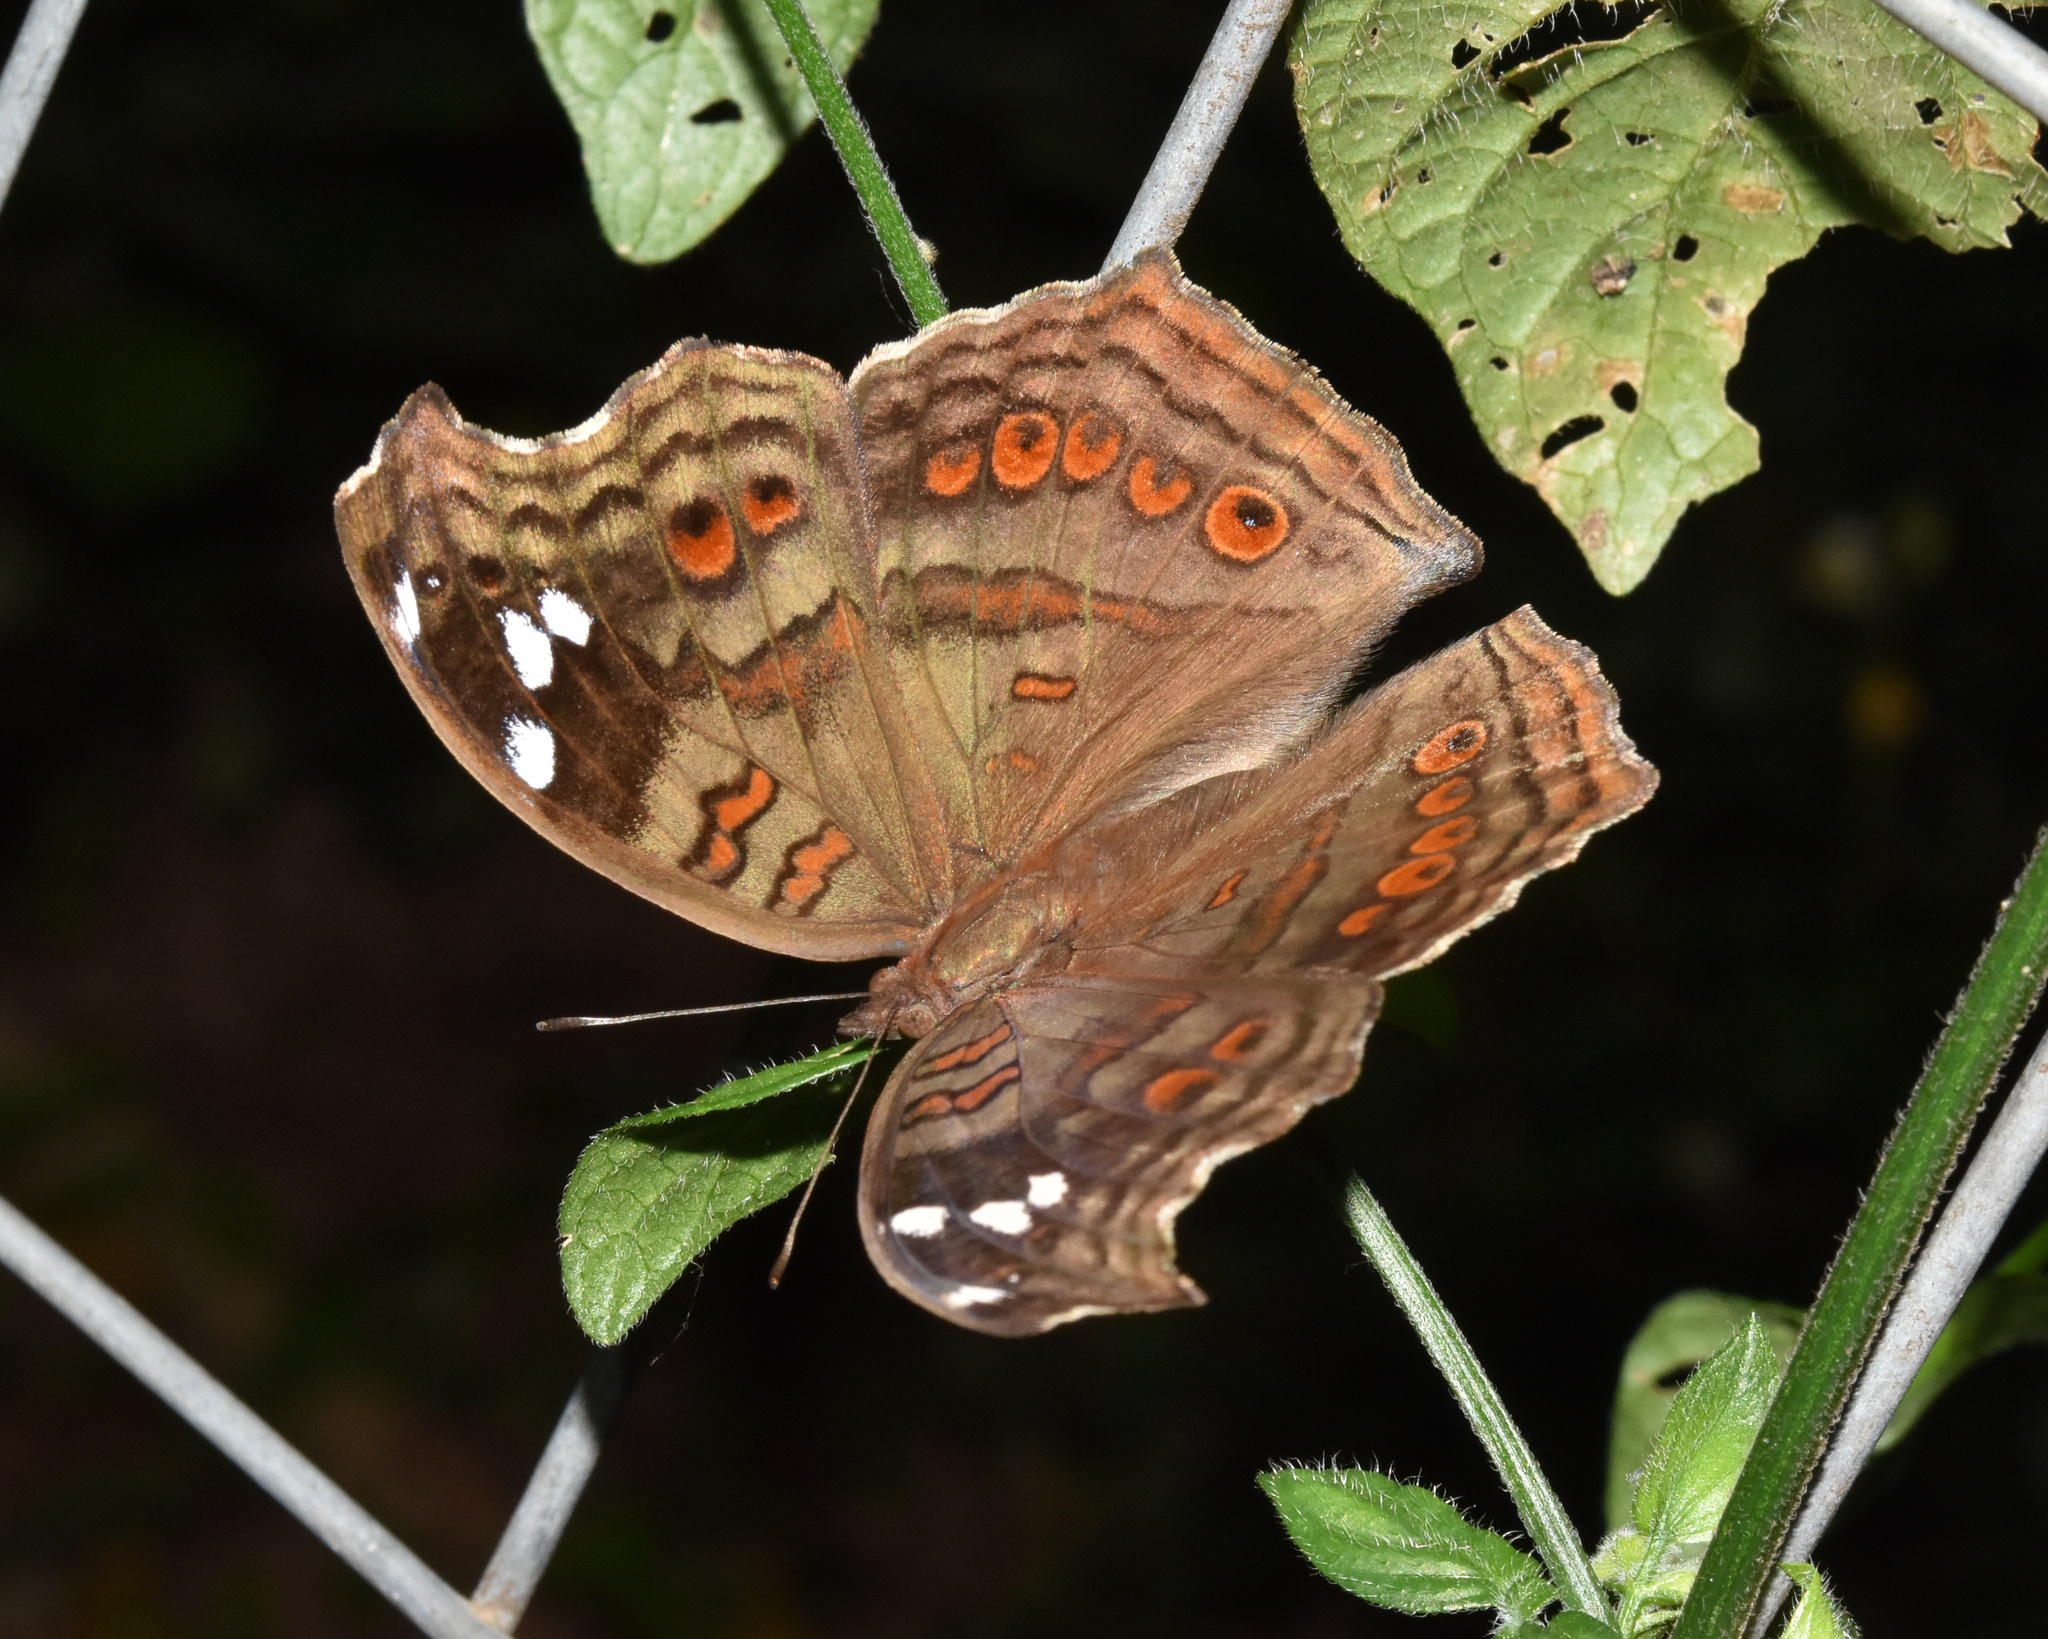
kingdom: Animalia
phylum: Arthropoda
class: Insecta
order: Lepidoptera
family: Nymphalidae
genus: Junonia
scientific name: Junonia natalica
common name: Brown pansy
